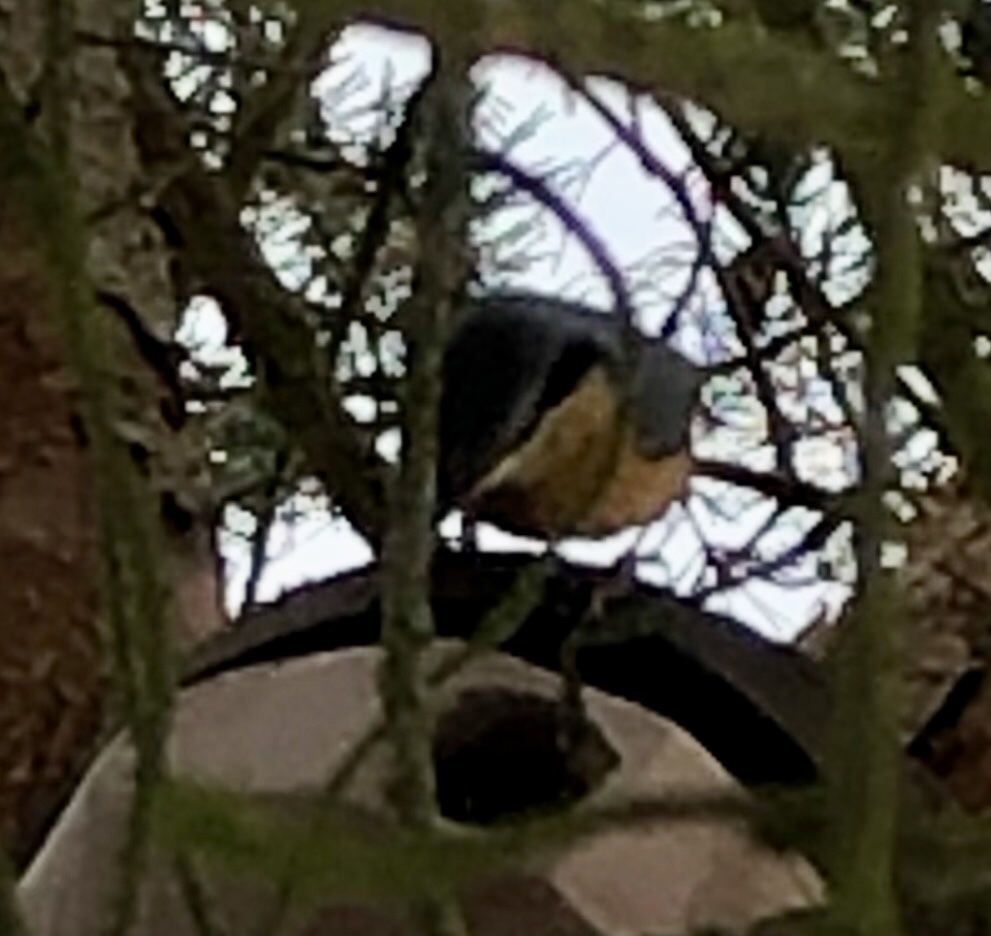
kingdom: Animalia
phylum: Chordata
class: Aves
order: Passeriformes
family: Sittidae
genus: Sitta
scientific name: Sitta europaea
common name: Eurasian nuthatch
